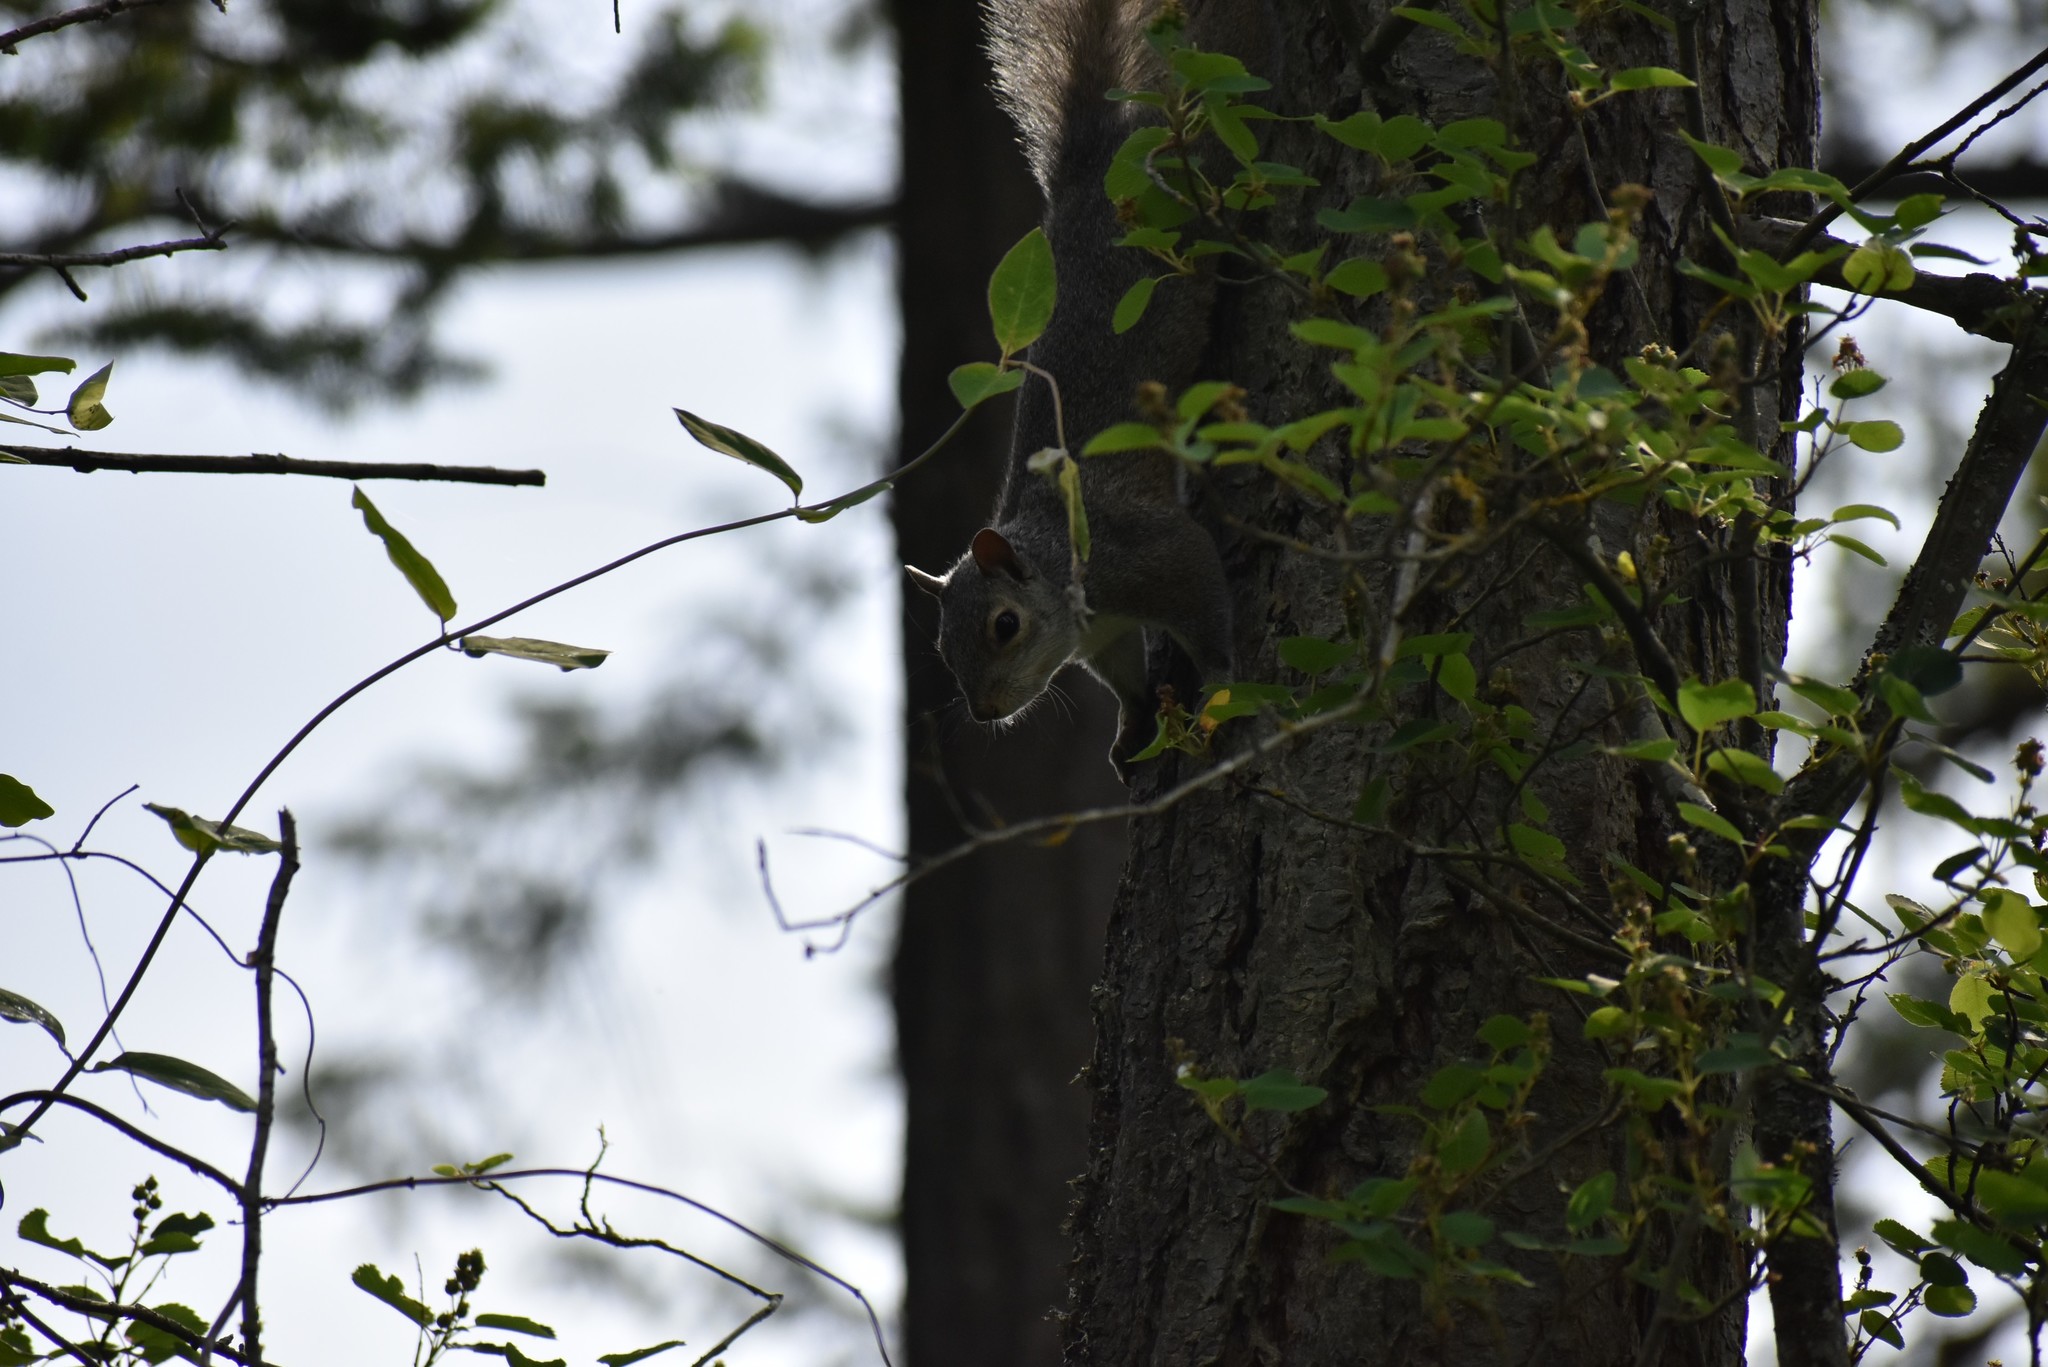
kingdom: Animalia
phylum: Chordata
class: Mammalia
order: Rodentia
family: Sciuridae
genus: Sciurus
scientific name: Sciurus carolinensis
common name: Eastern gray squirrel
